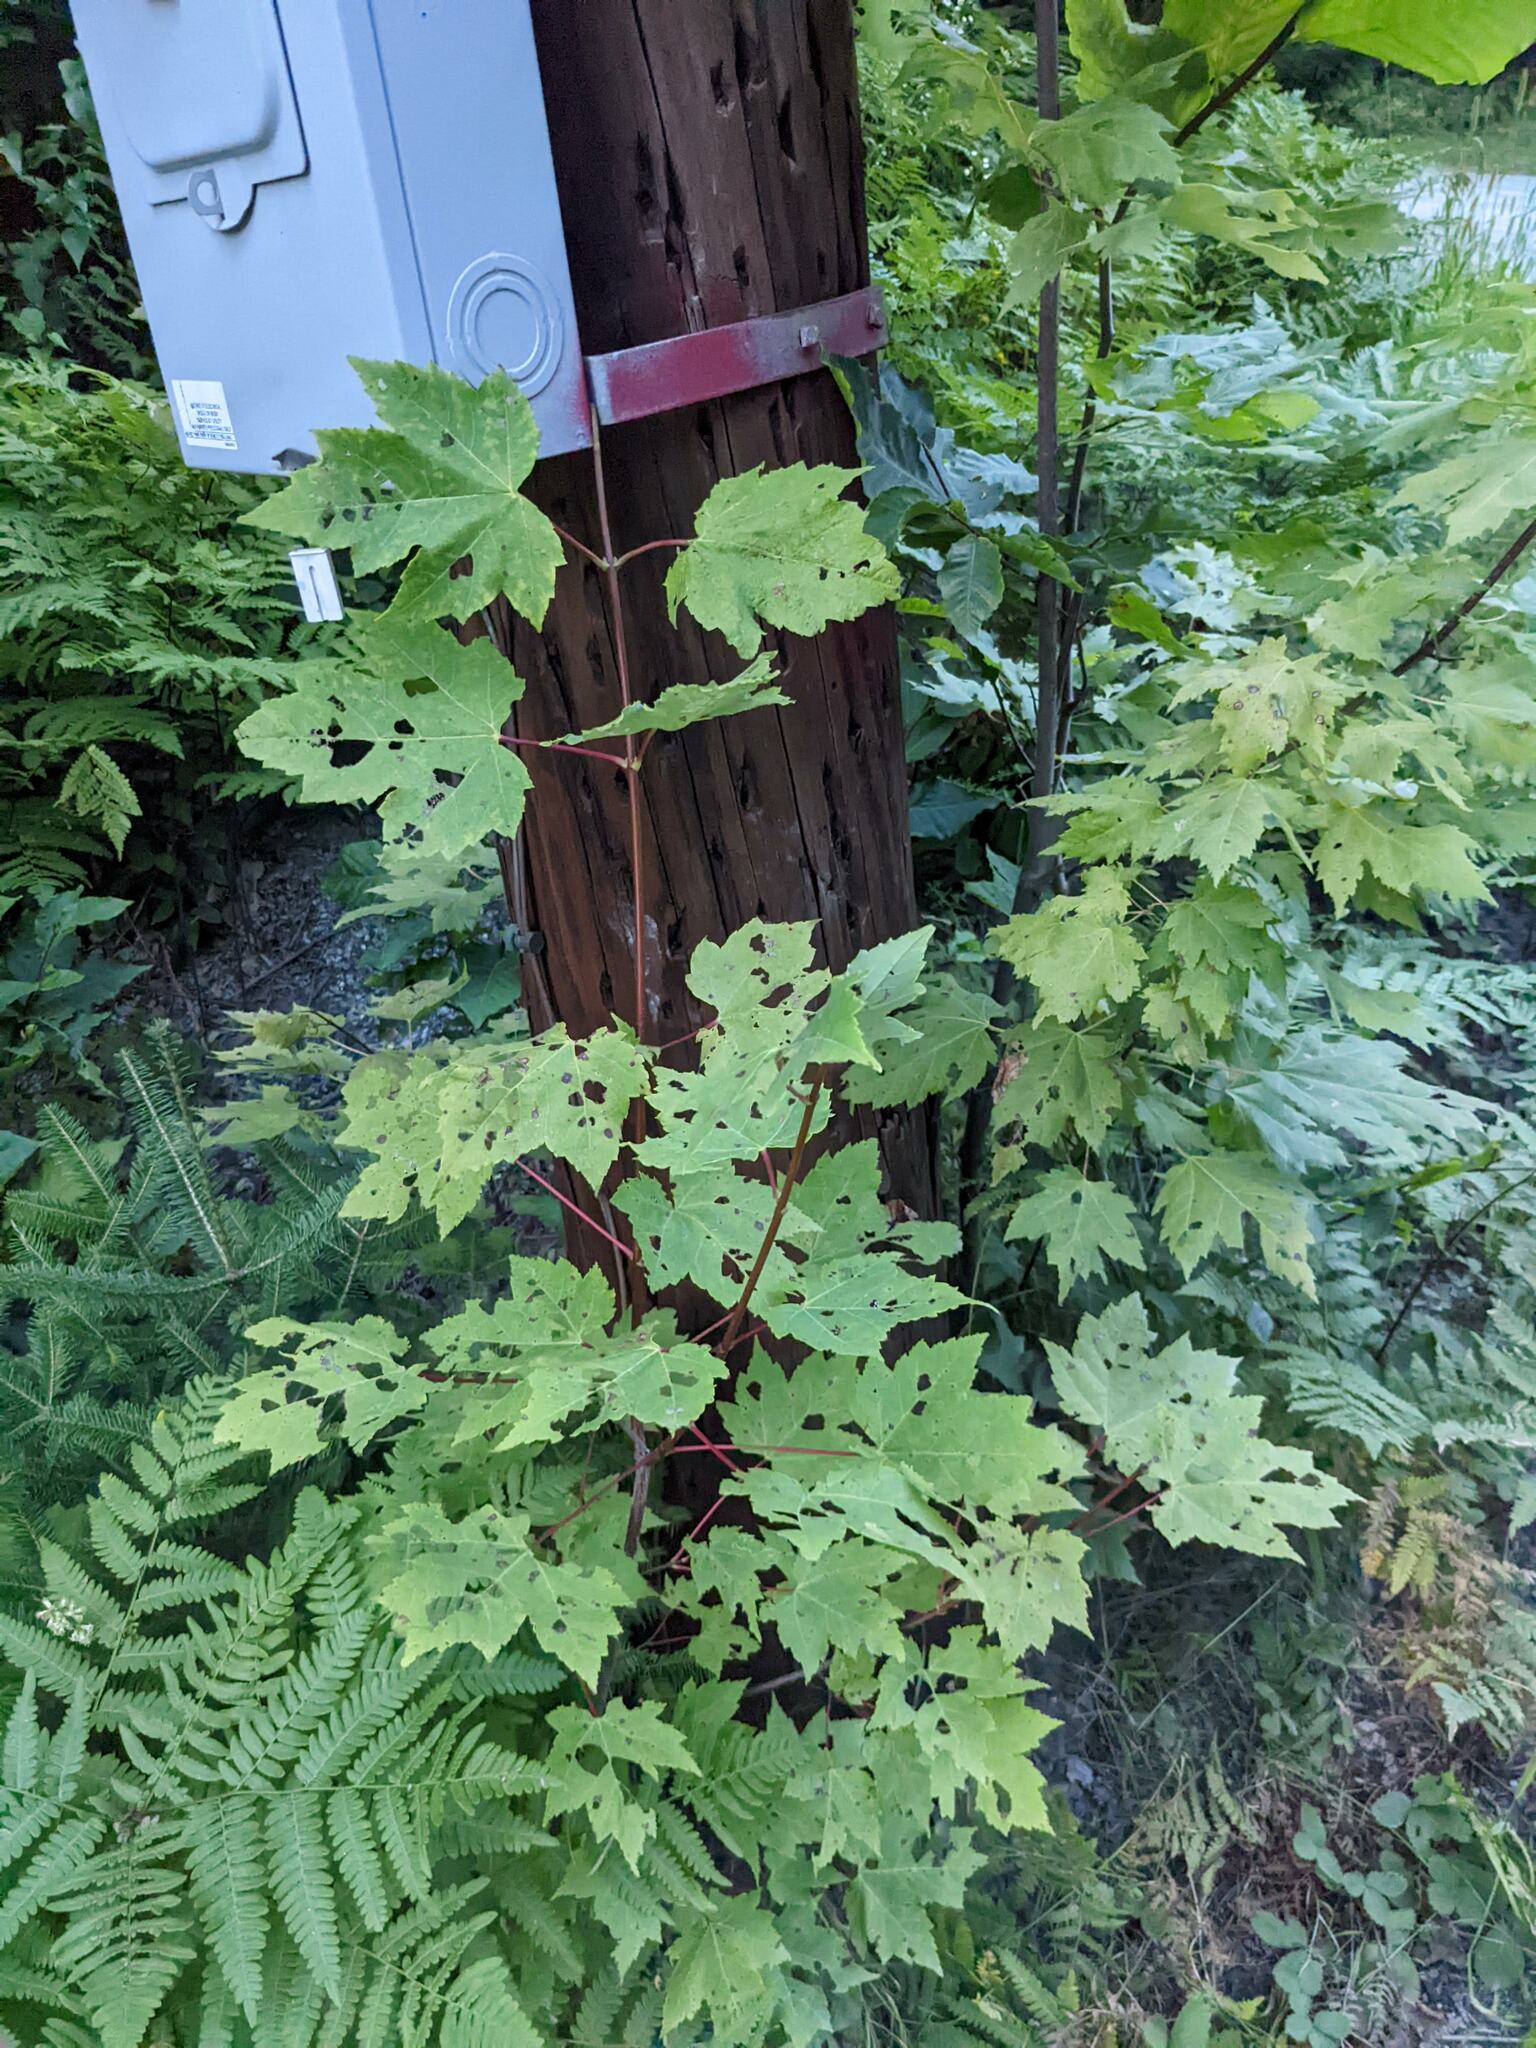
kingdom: Plantae
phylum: Tracheophyta
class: Magnoliopsida
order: Sapindales
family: Sapindaceae
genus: Acer
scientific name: Acer rubrum
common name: Red maple
